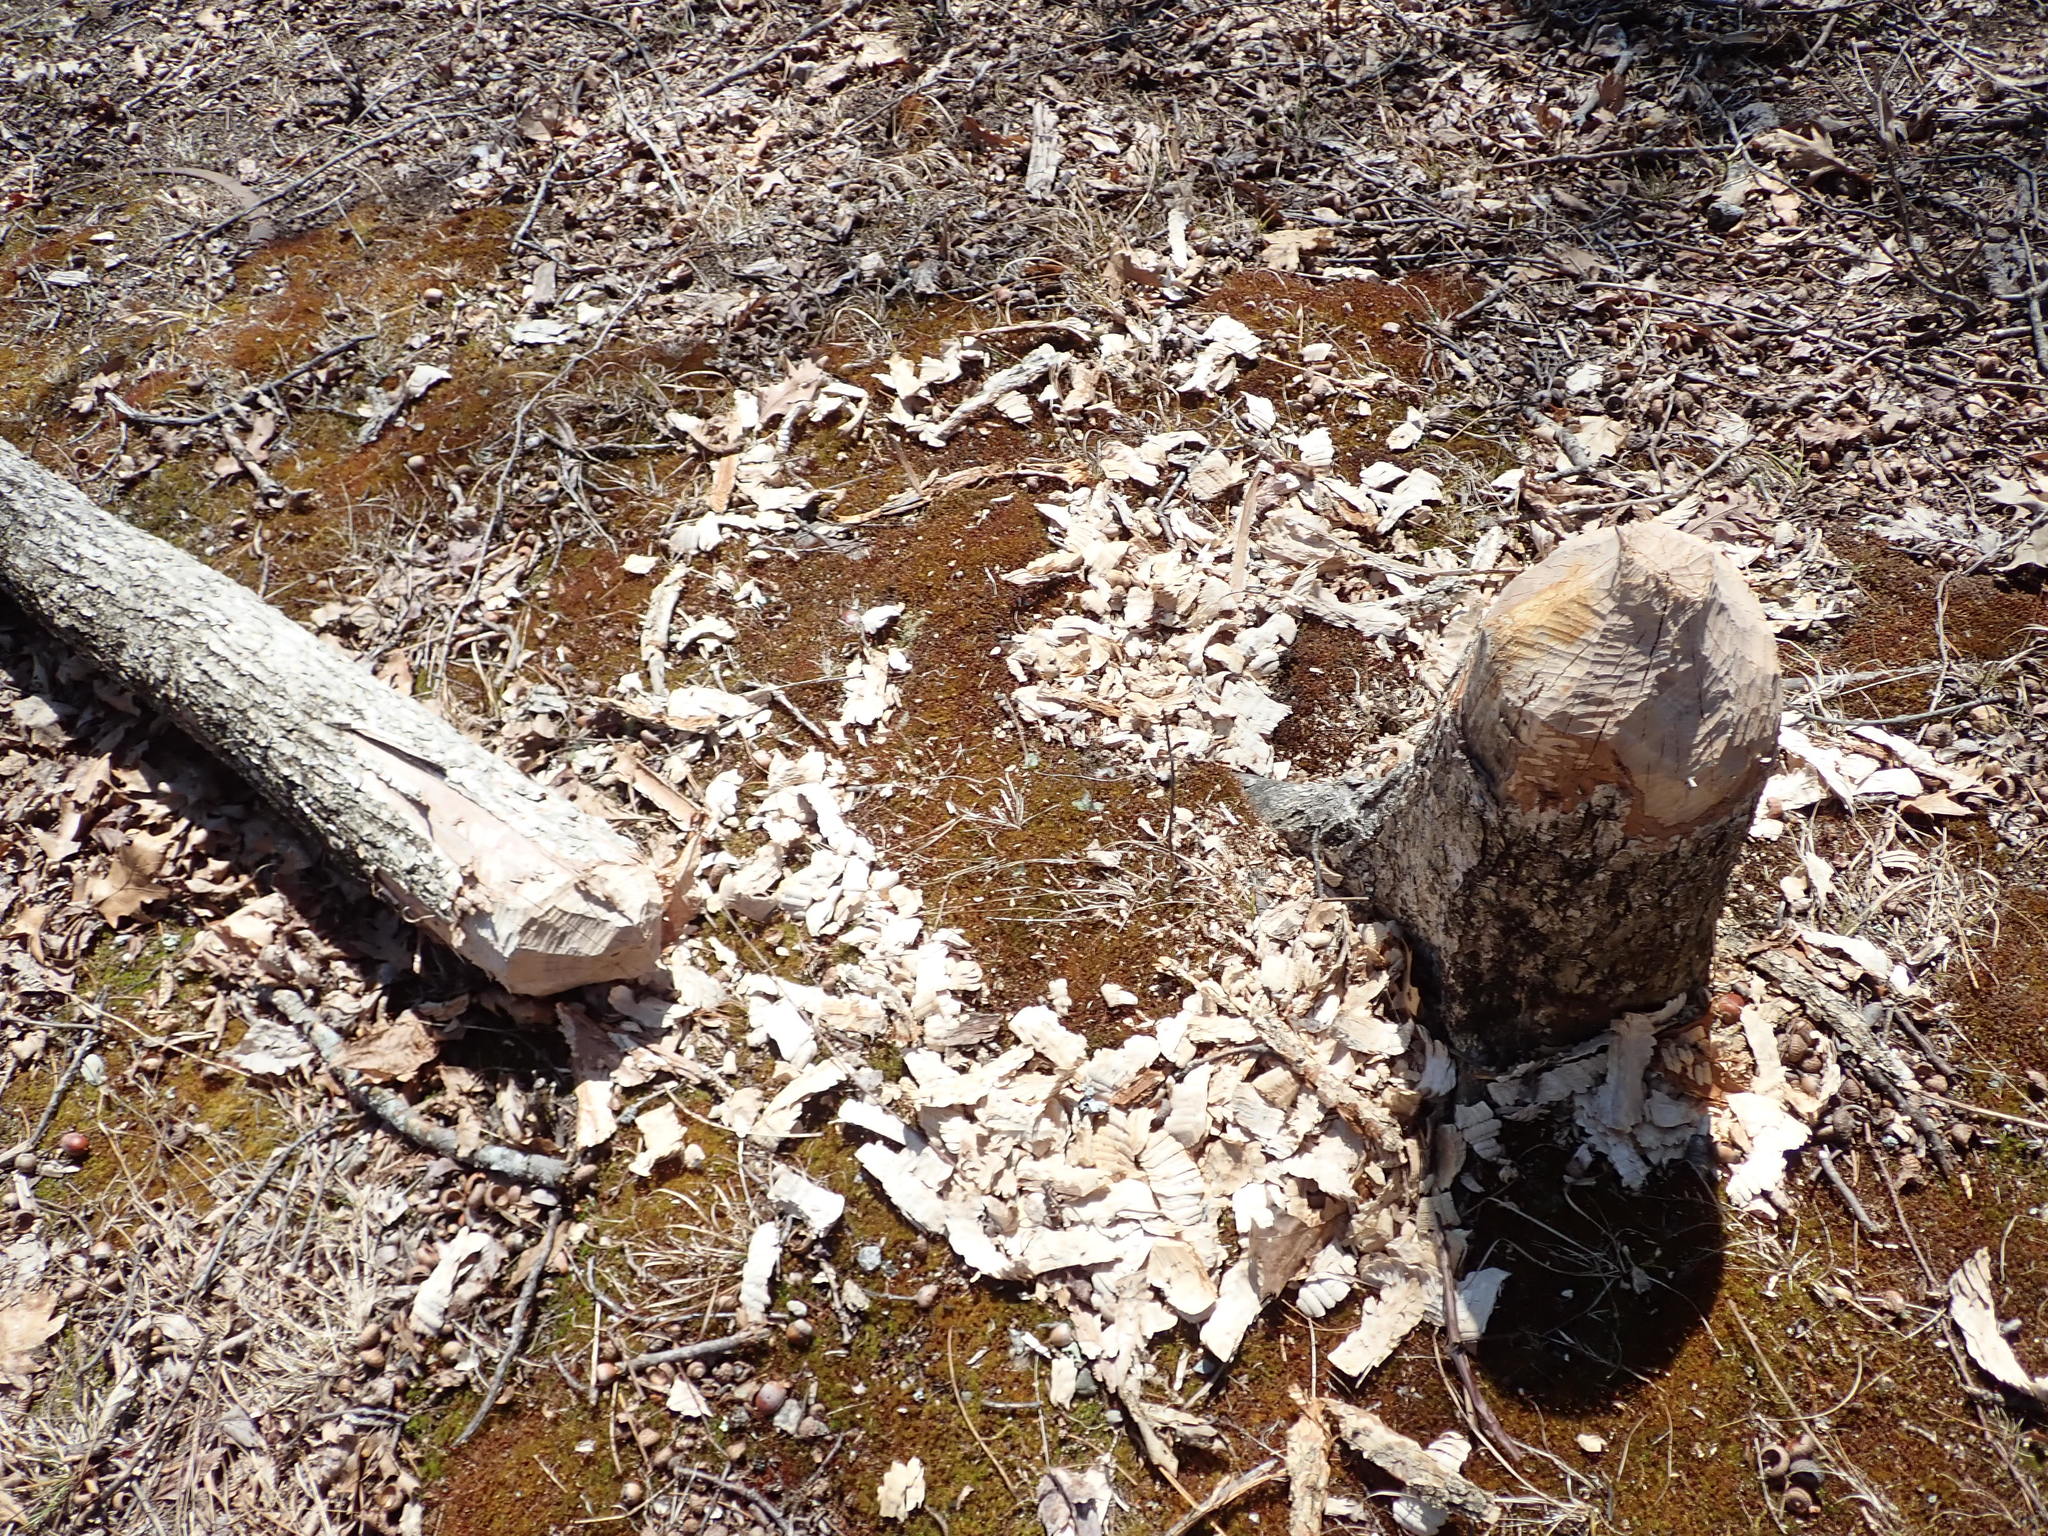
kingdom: Animalia
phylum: Chordata
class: Mammalia
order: Rodentia
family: Castoridae
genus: Castor
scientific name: Castor canadensis
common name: American beaver
